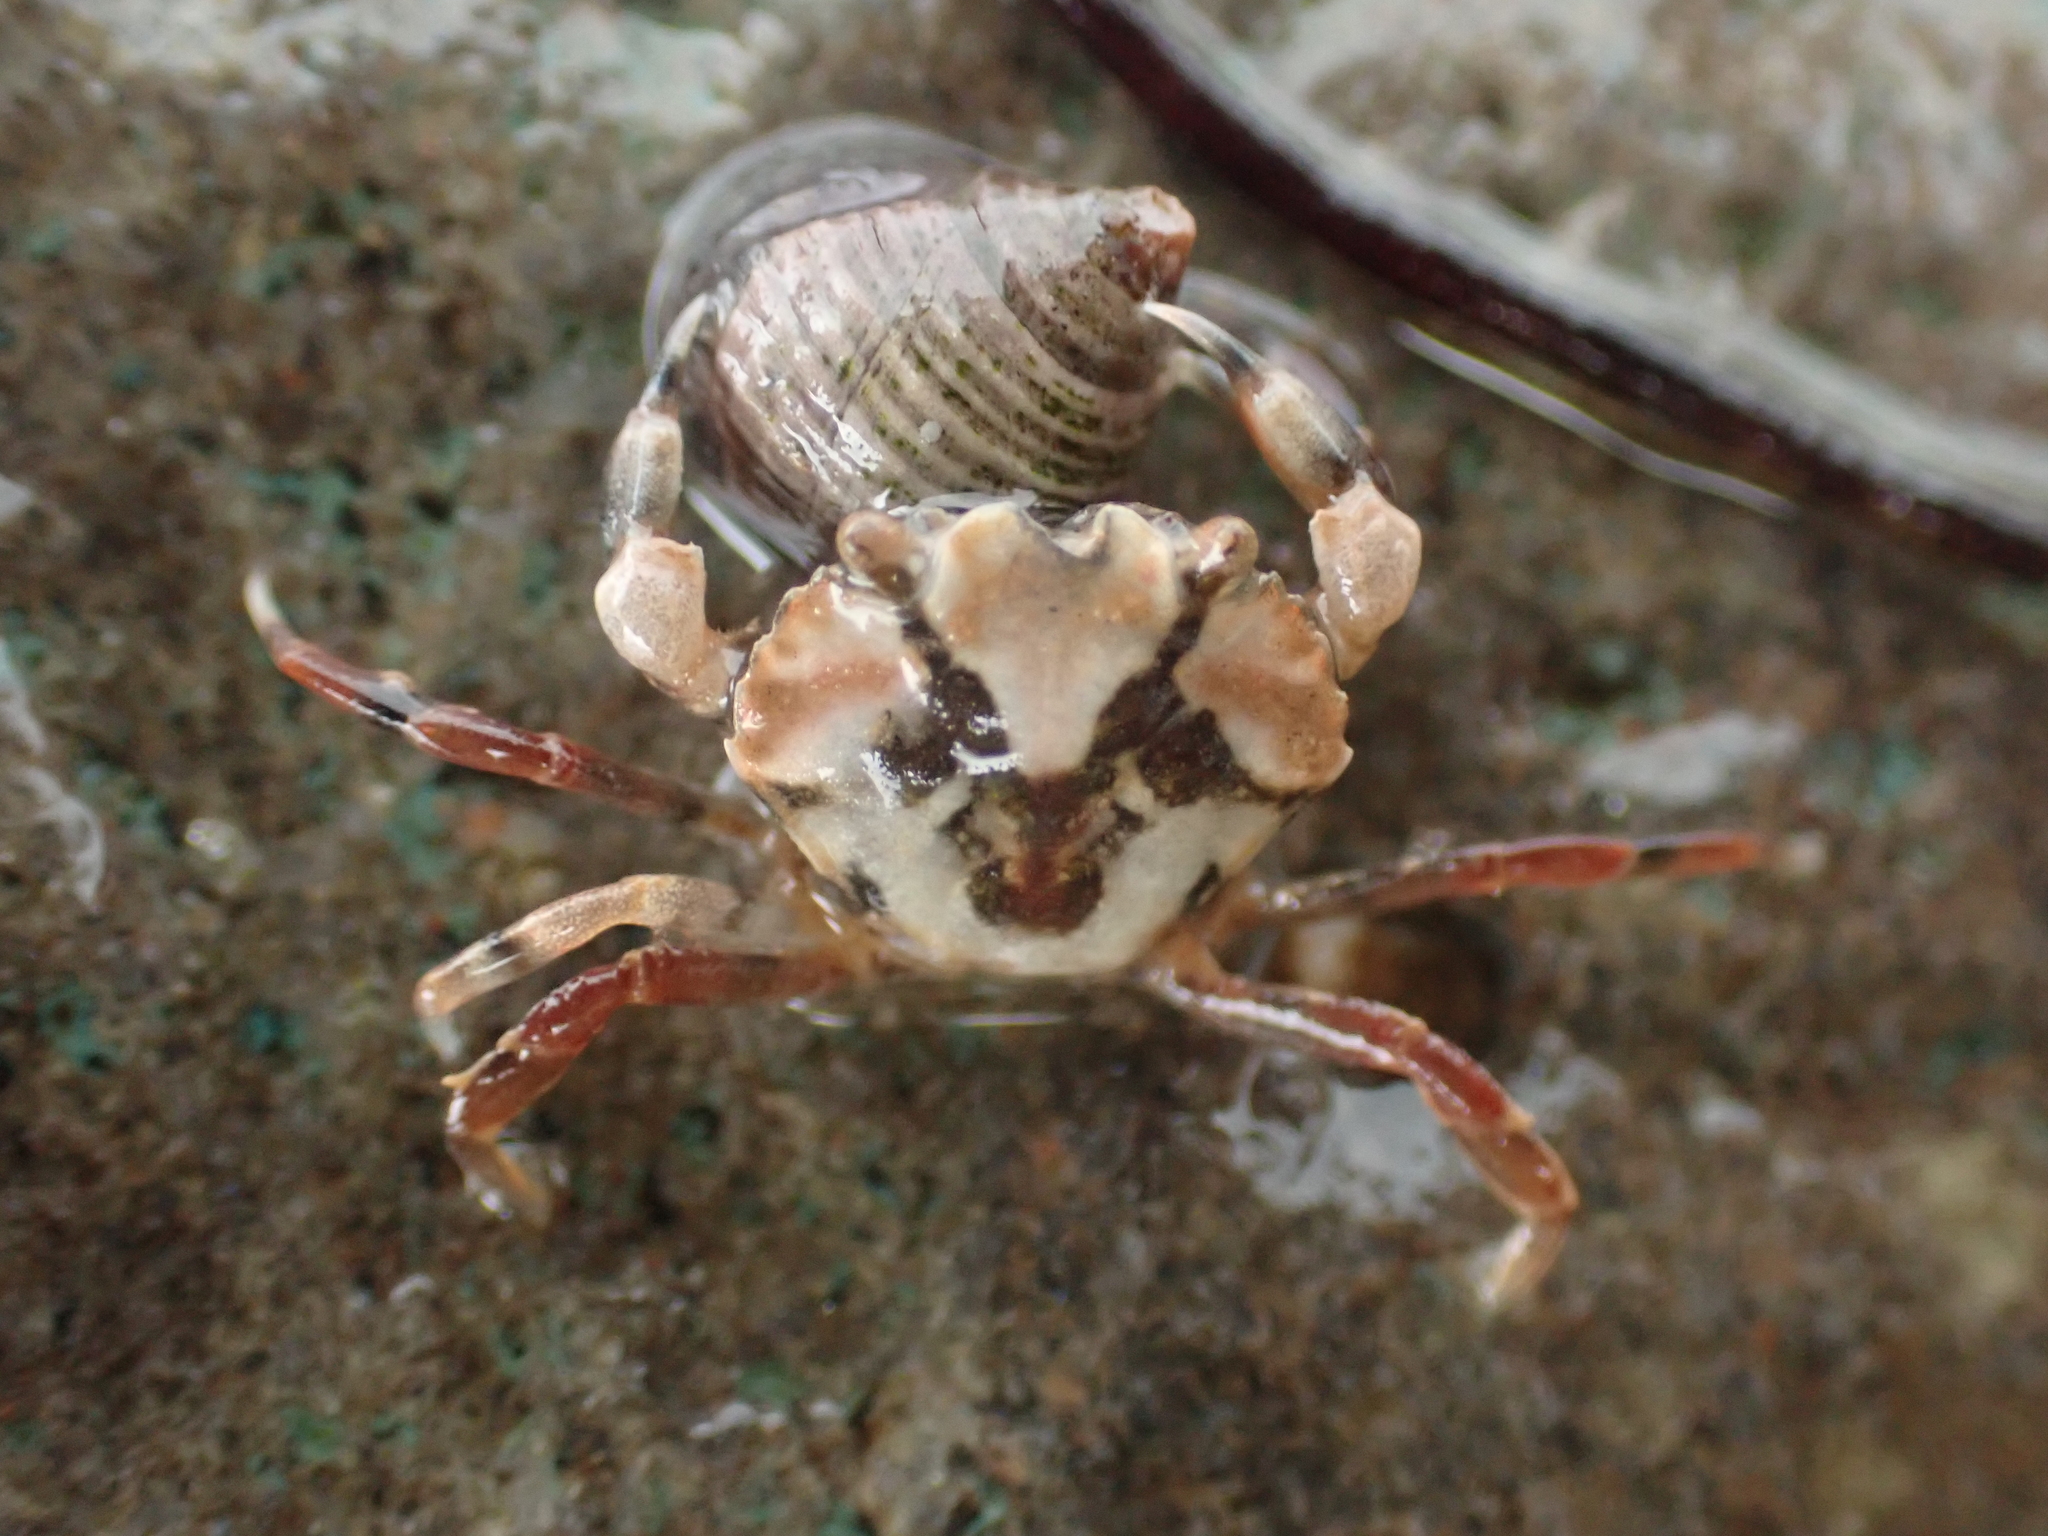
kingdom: Animalia
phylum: Arthropoda
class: Malacostraca
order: Decapoda
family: Carcinidae
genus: Carcinus
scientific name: Carcinus maenas
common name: European green crab
